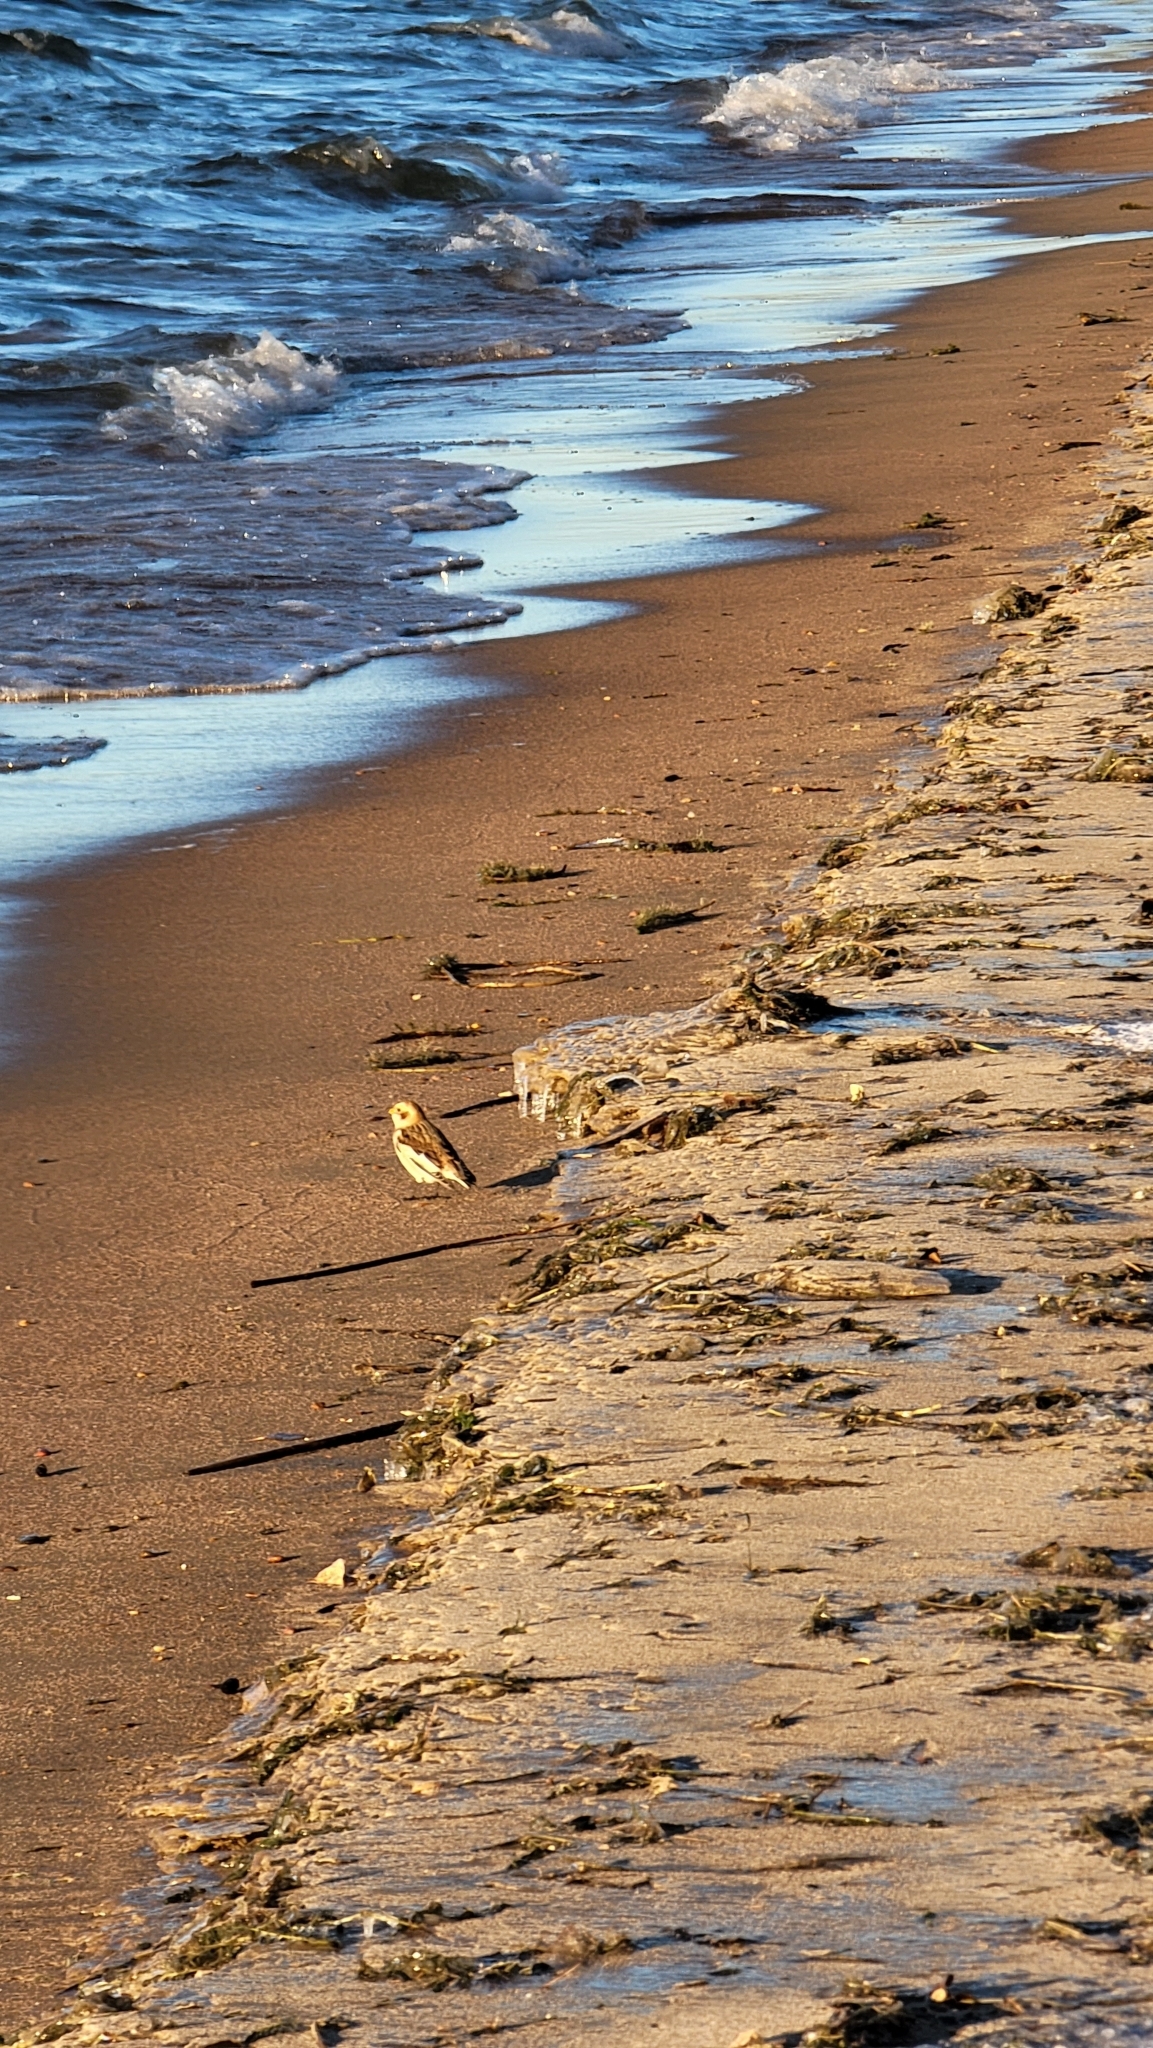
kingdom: Animalia
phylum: Chordata
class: Aves
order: Passeriformes
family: Calcariidae
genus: Plectrophenax
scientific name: Plectrophenax nivalis
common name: Snow bunting
